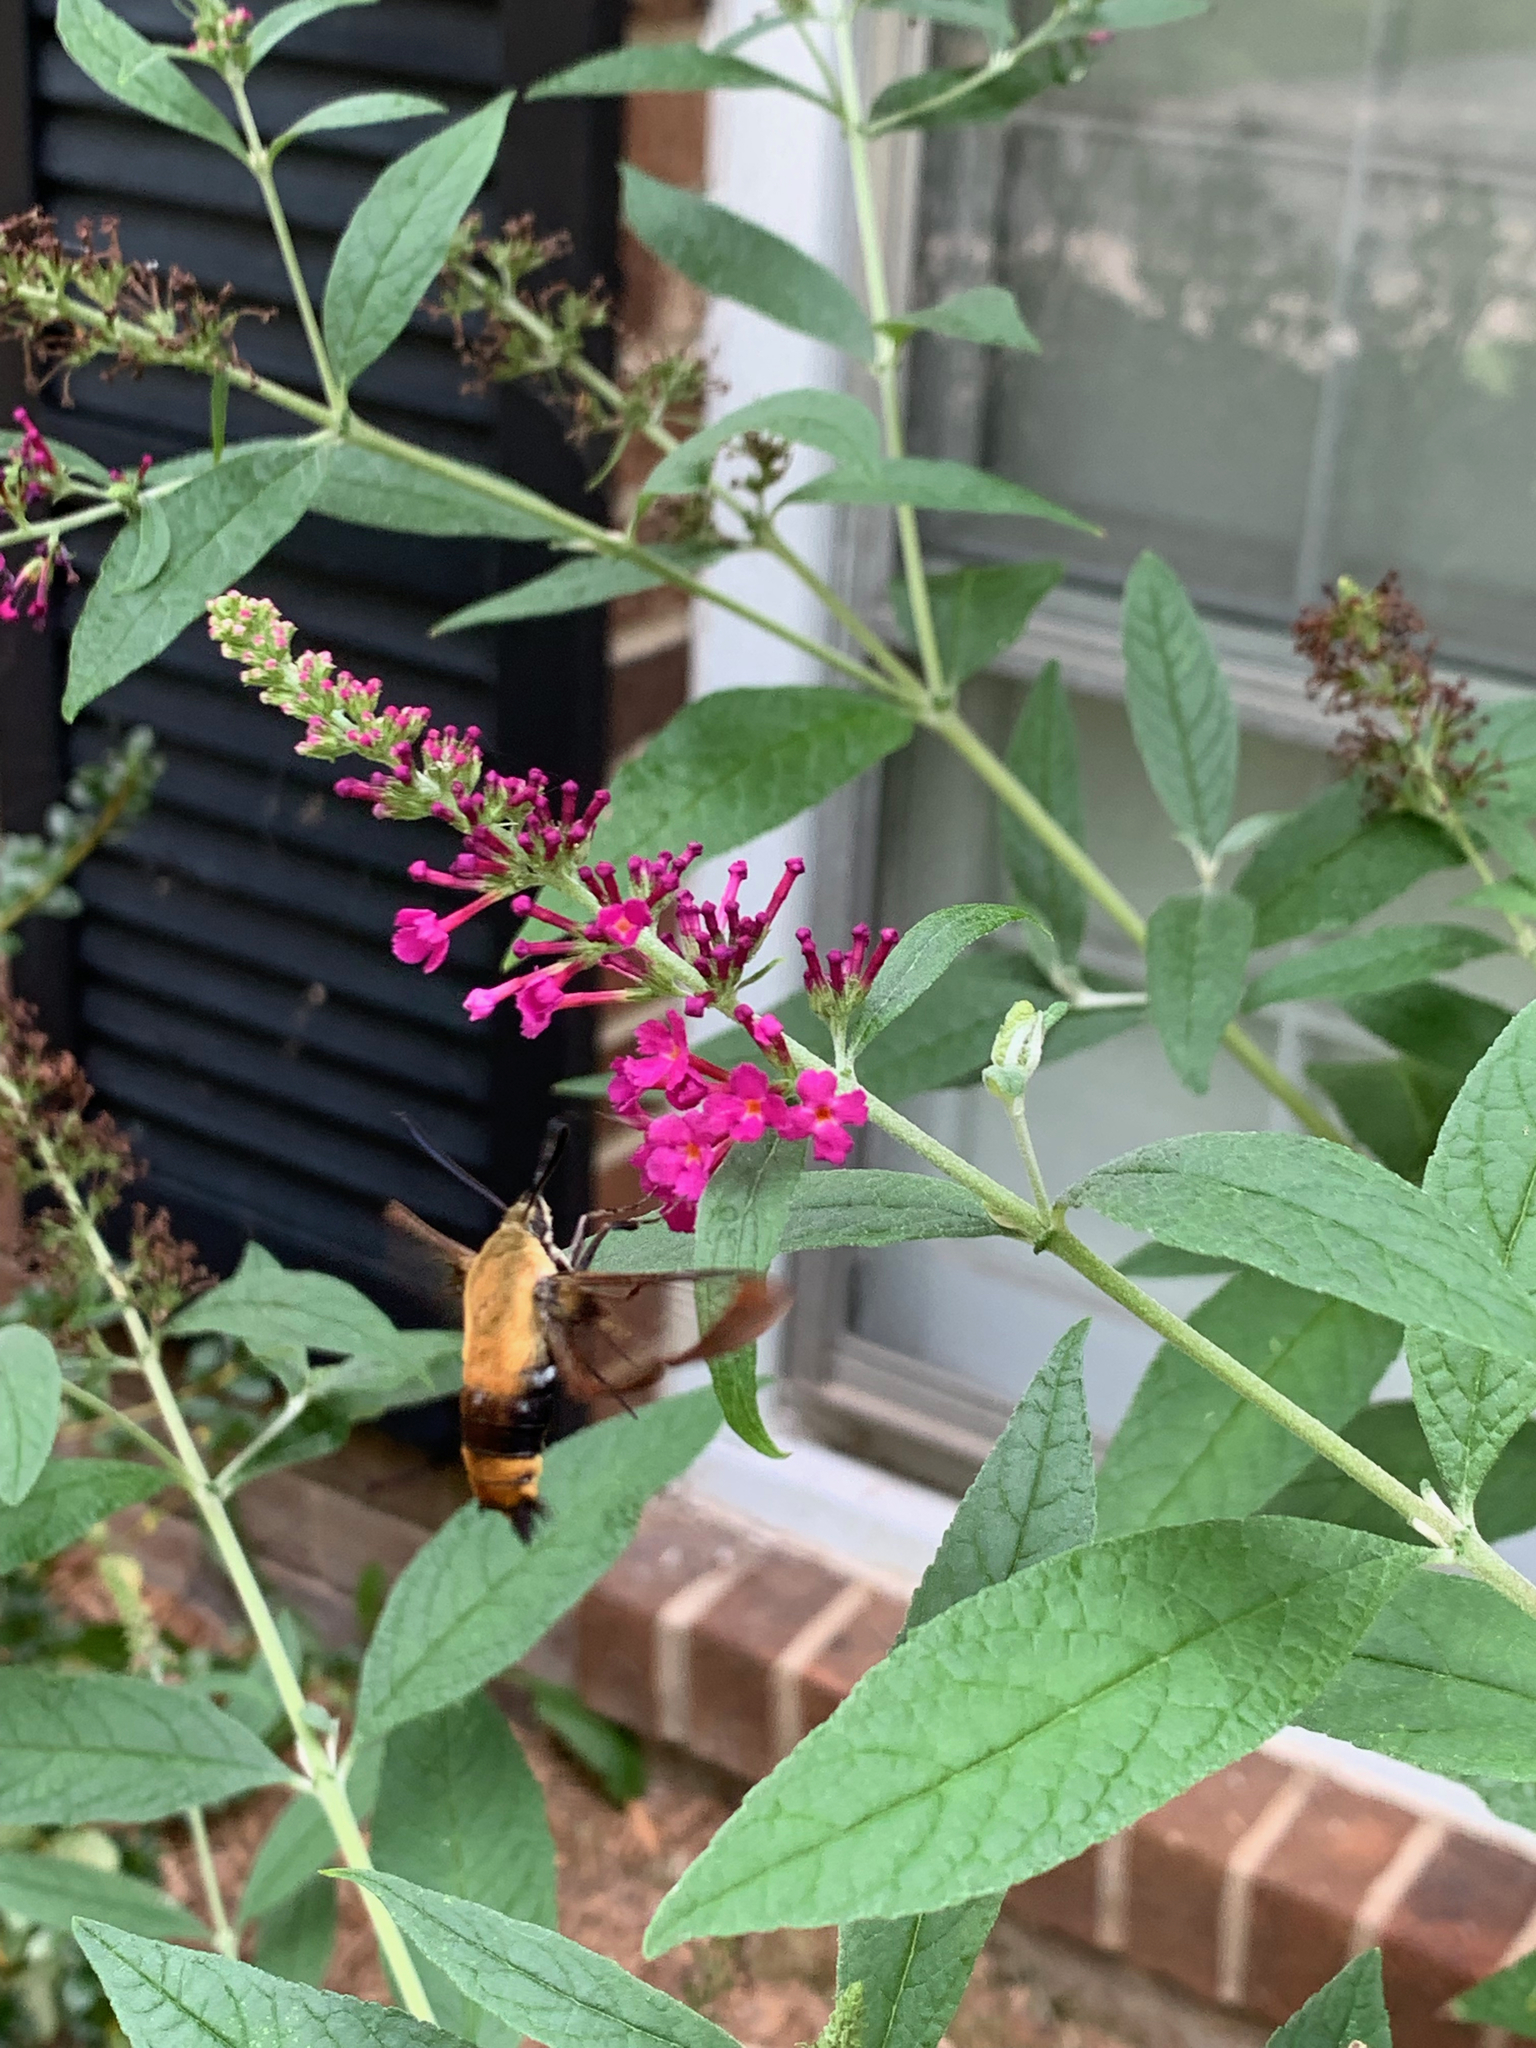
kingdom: Animalia
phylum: Arthropoda
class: Insecta
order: Lepidoptera
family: Sphingidae
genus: Hemaris
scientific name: Hemaris diffinis
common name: Bumblebee moth
